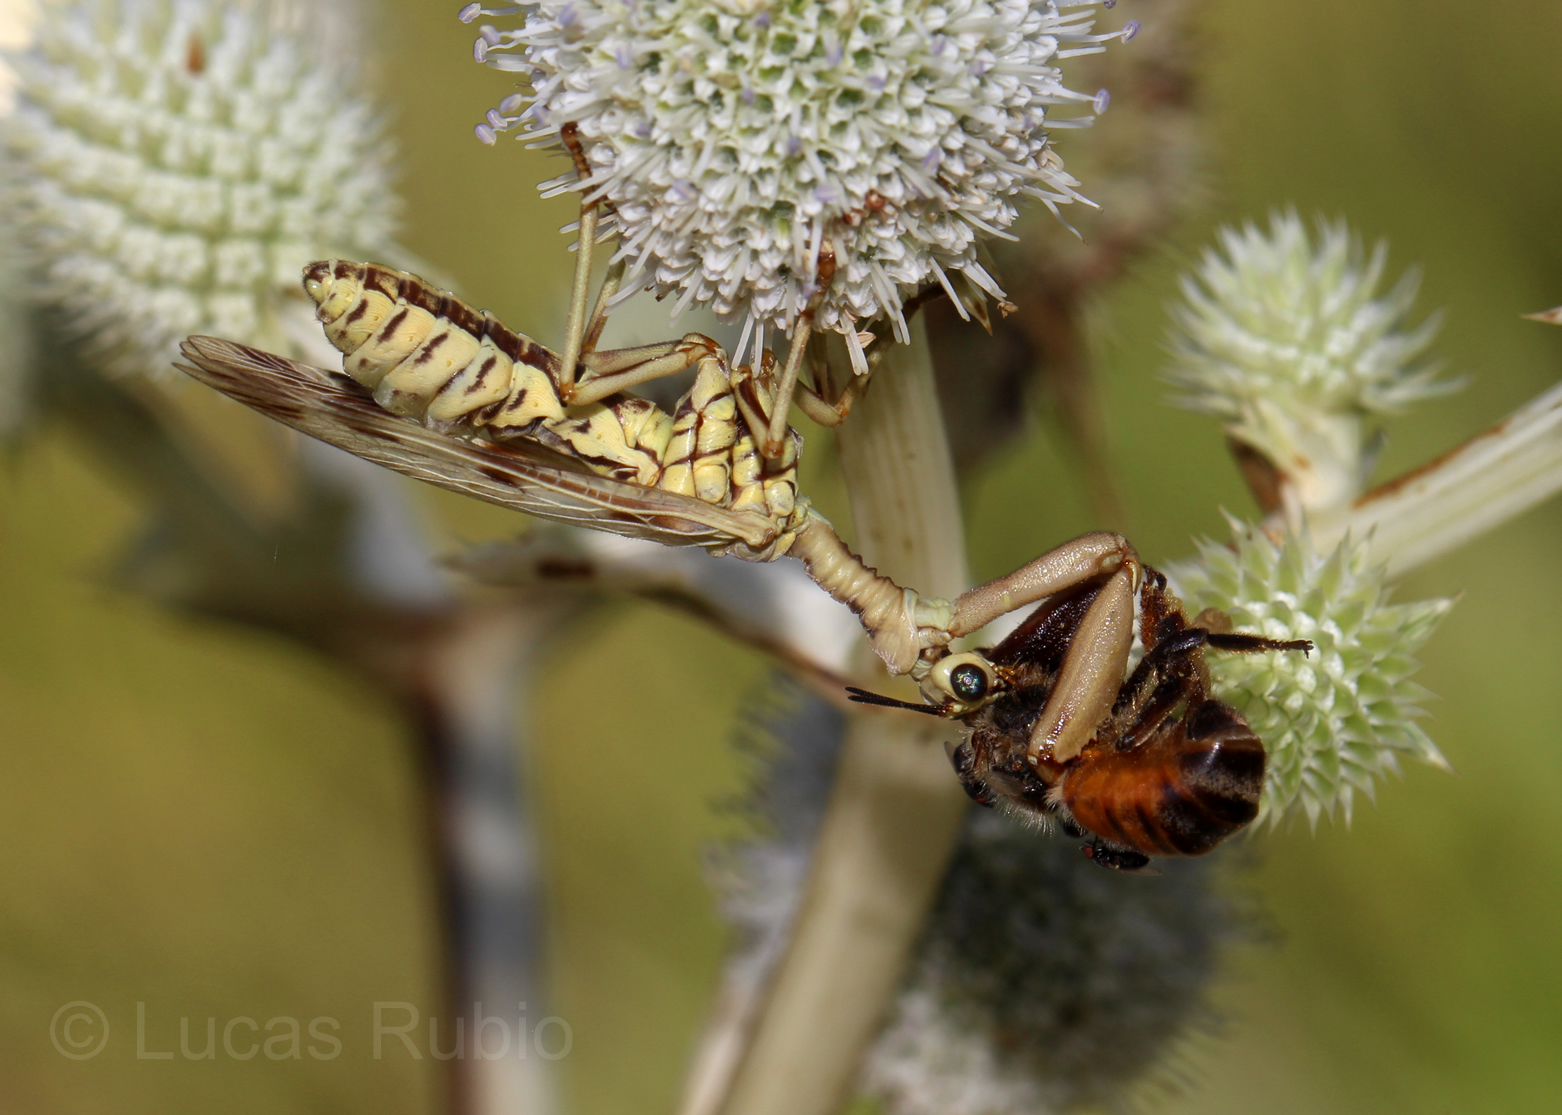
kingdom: Animalia
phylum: Arthropoda
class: Insecta
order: Neuroptera
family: Mantispidae
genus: Paramantispa
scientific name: Paramantispa ambusta
